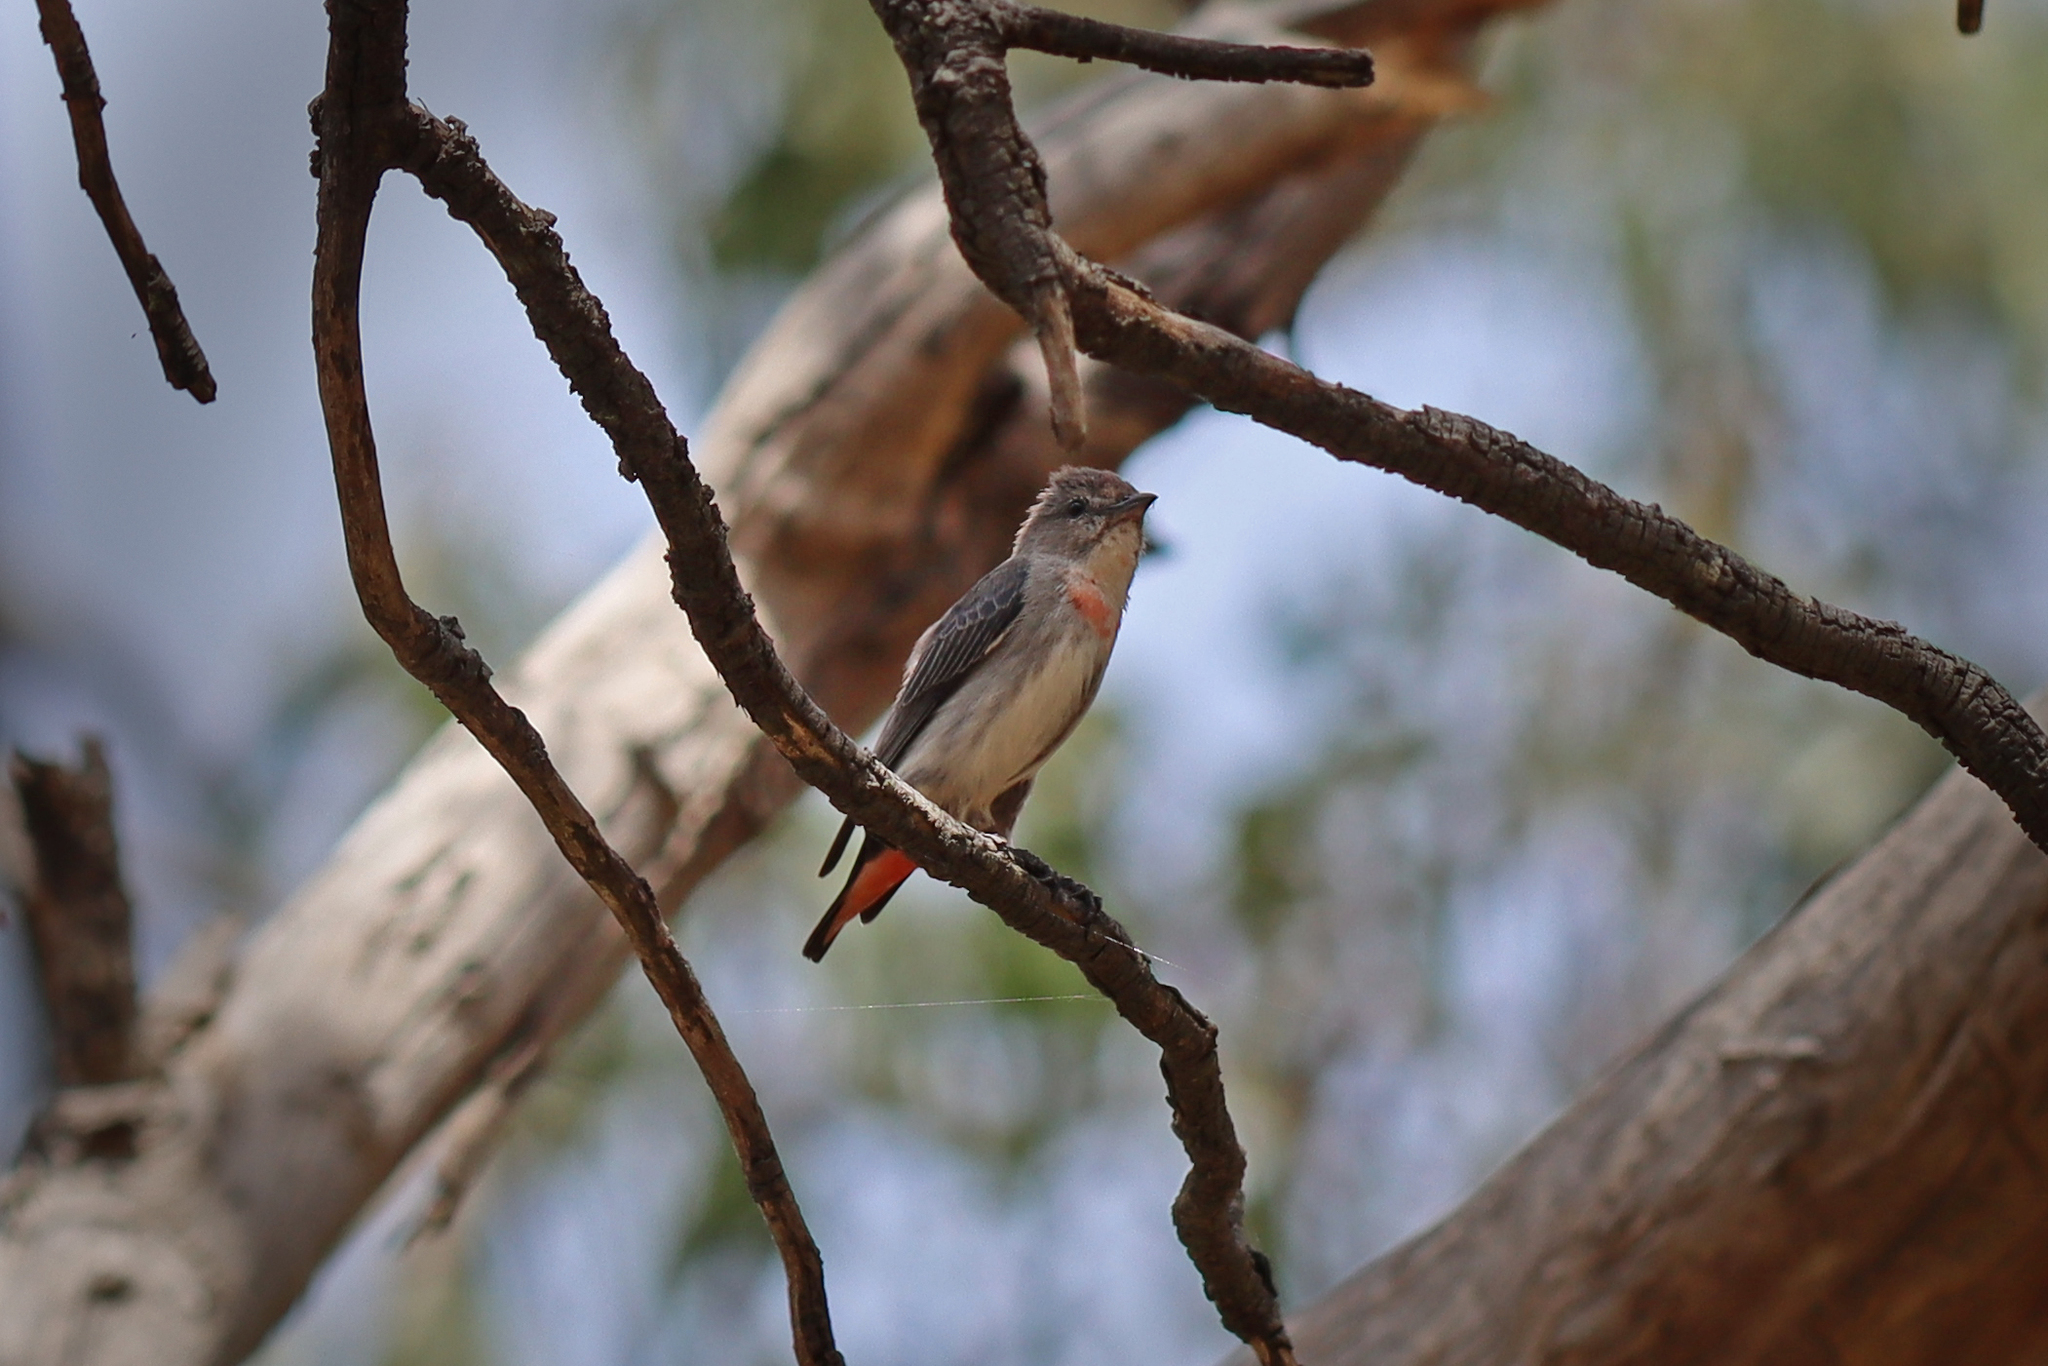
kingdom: Animalia
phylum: Chordata
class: Aves
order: Passeriformes
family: Dicaeidae
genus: Dicaeum
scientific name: Dicaeum hirundinaceum
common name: Mistletoebird
